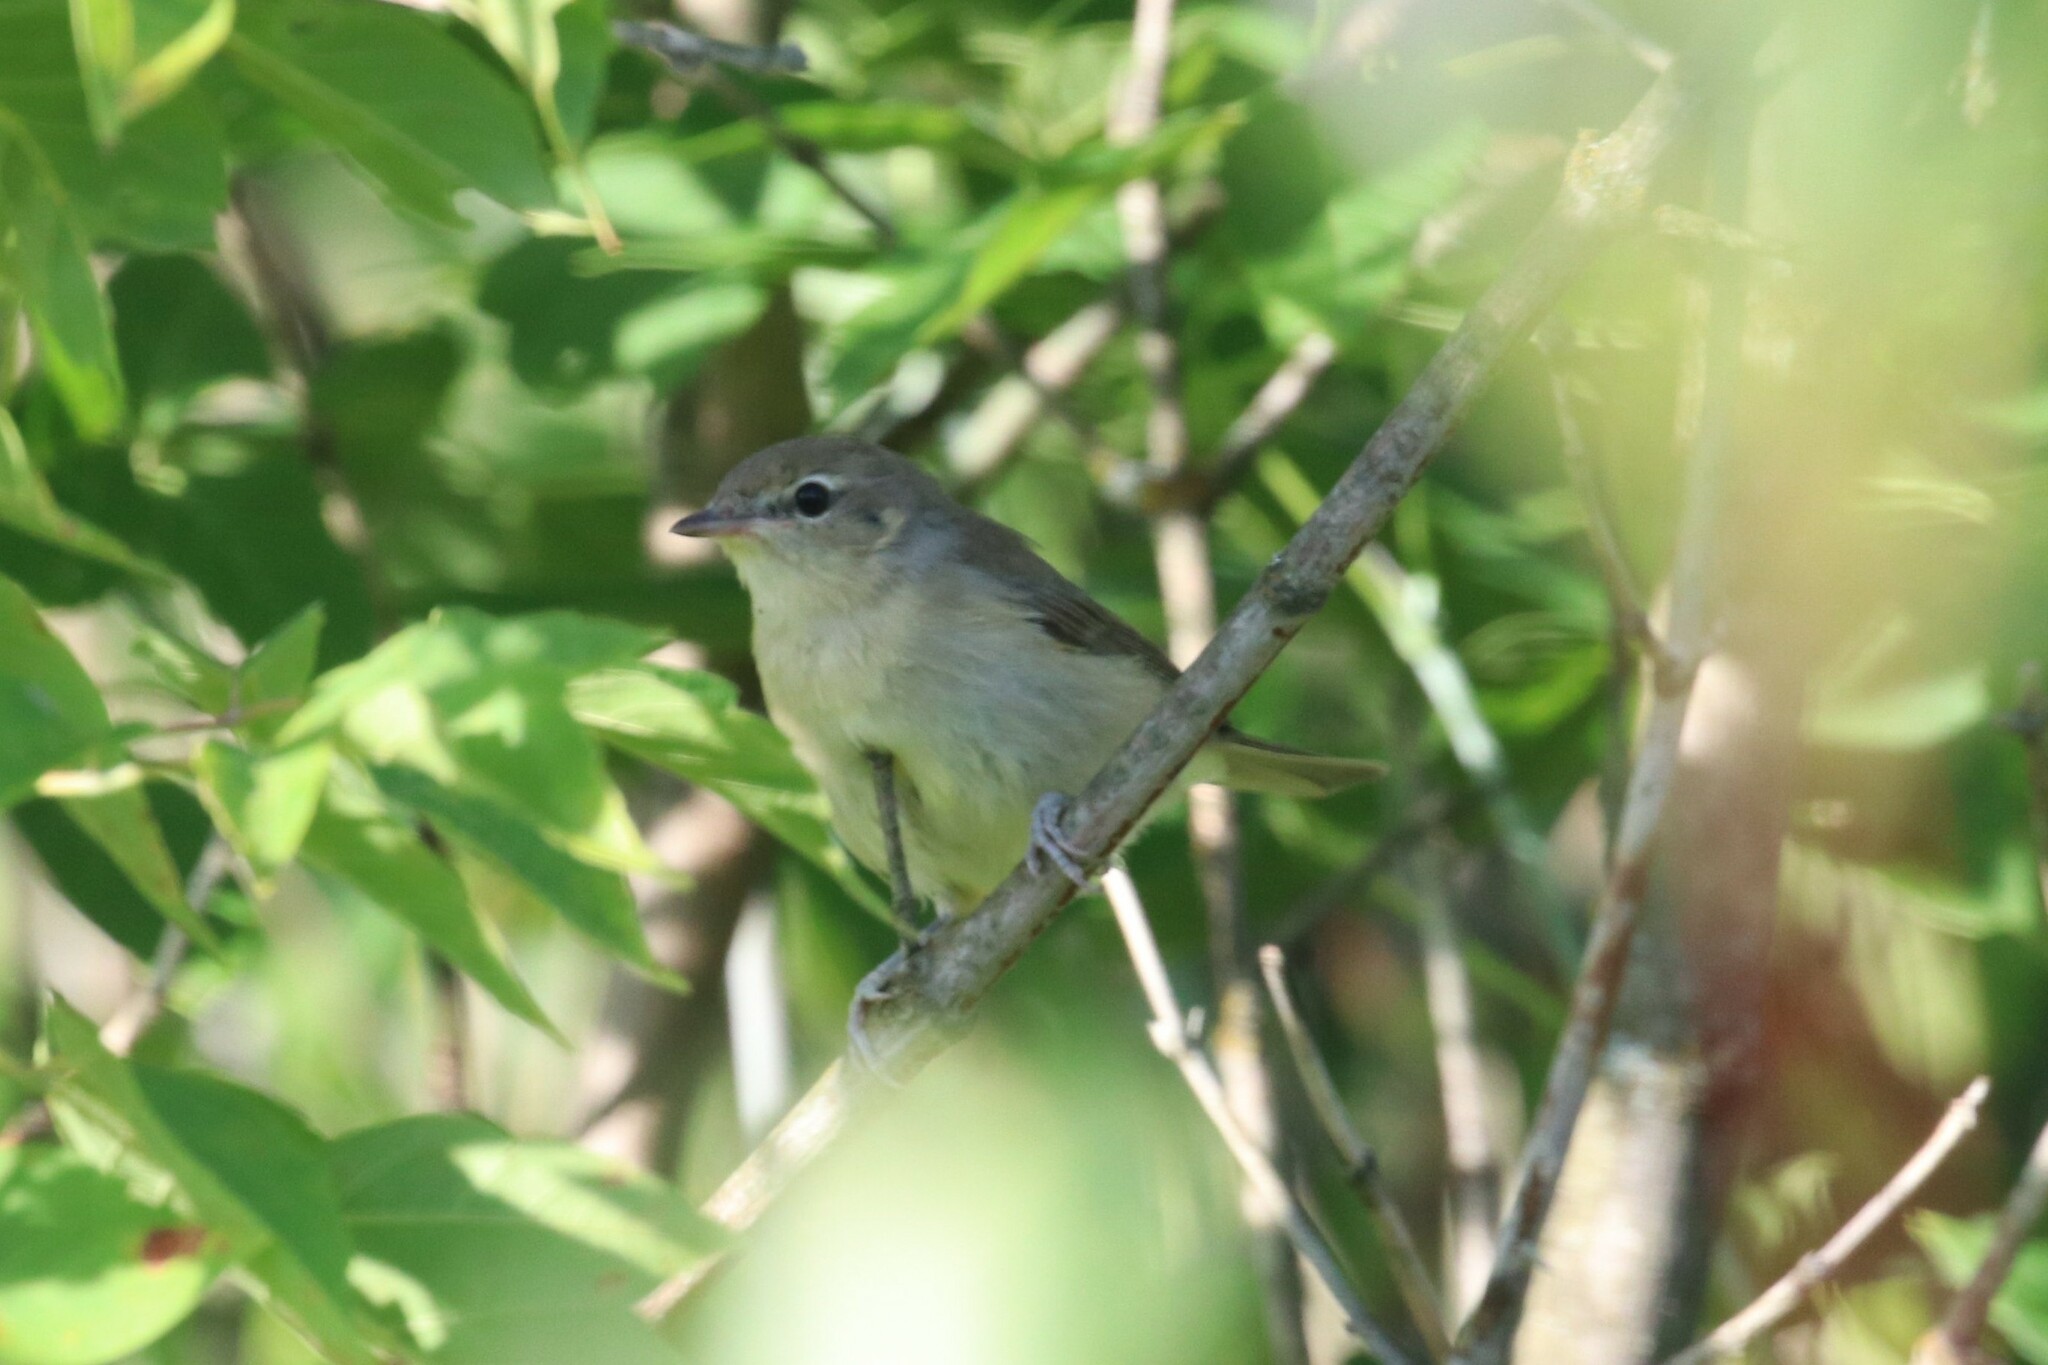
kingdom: Animalia
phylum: Chordata
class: Aves
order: Passeriformes
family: Sylviidae
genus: Sylvia
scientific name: Sylvia borin
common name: Garden warbler
